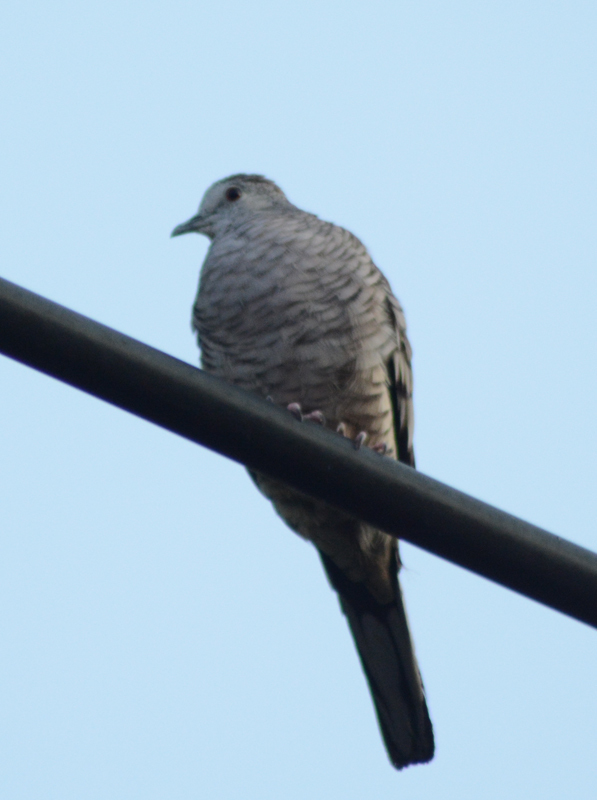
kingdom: Animalia
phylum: Chordata
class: Aves
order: Columbiformes
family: Columbidae
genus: Columbina
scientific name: Columbina inca
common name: Inca dove
